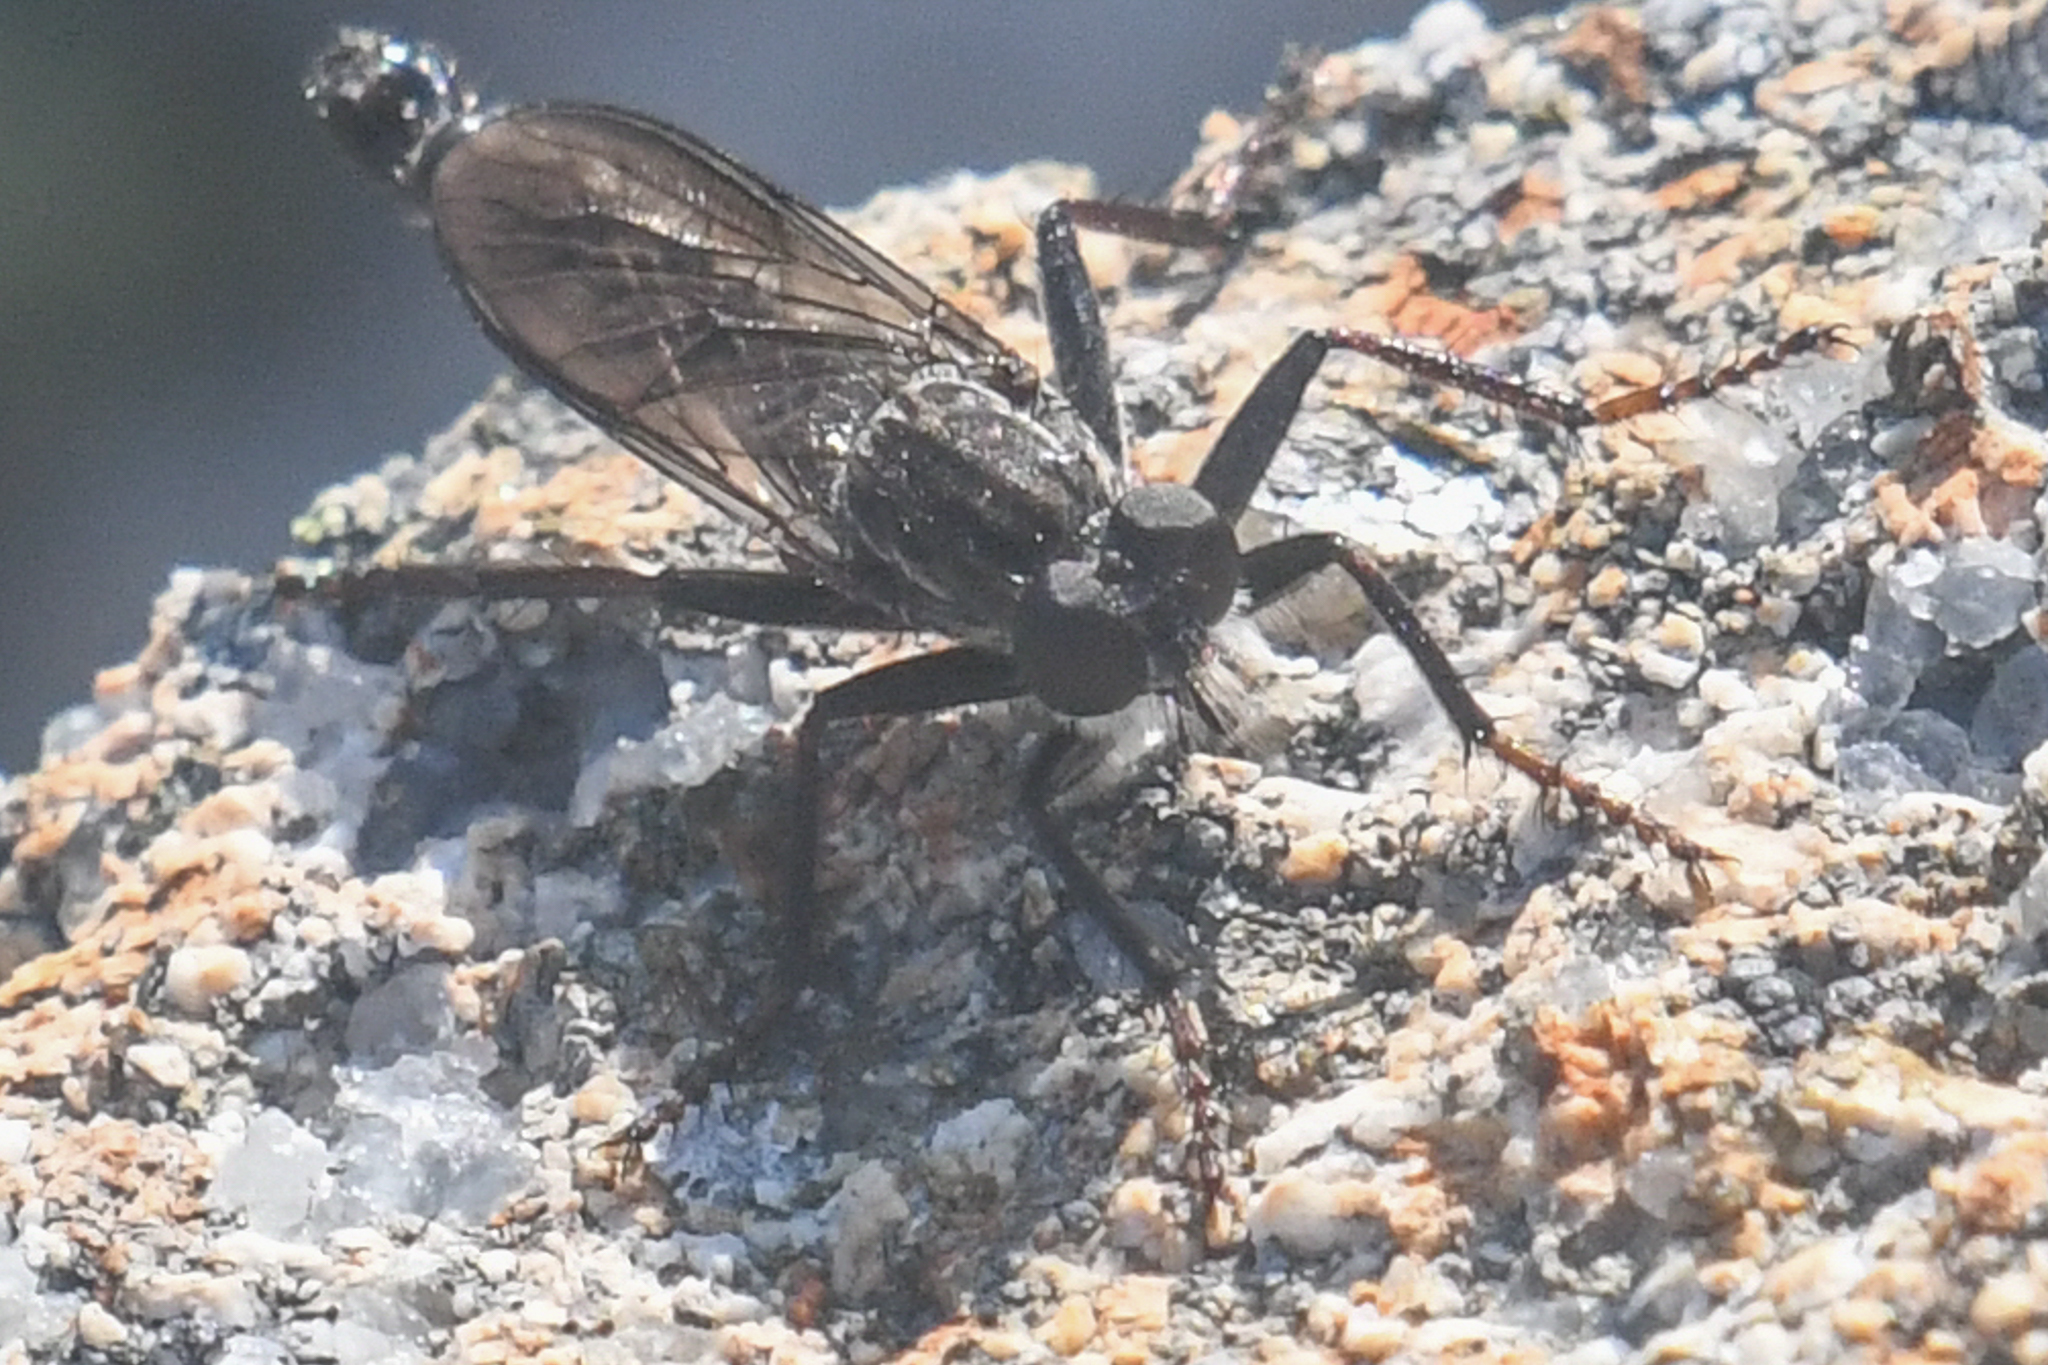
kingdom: Animalia
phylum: Arthropoda
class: Insecta
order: Diptera
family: Asilidae
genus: Rhadiurgus
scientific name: Rhadiurgus variabilis
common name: Northern robberfly
